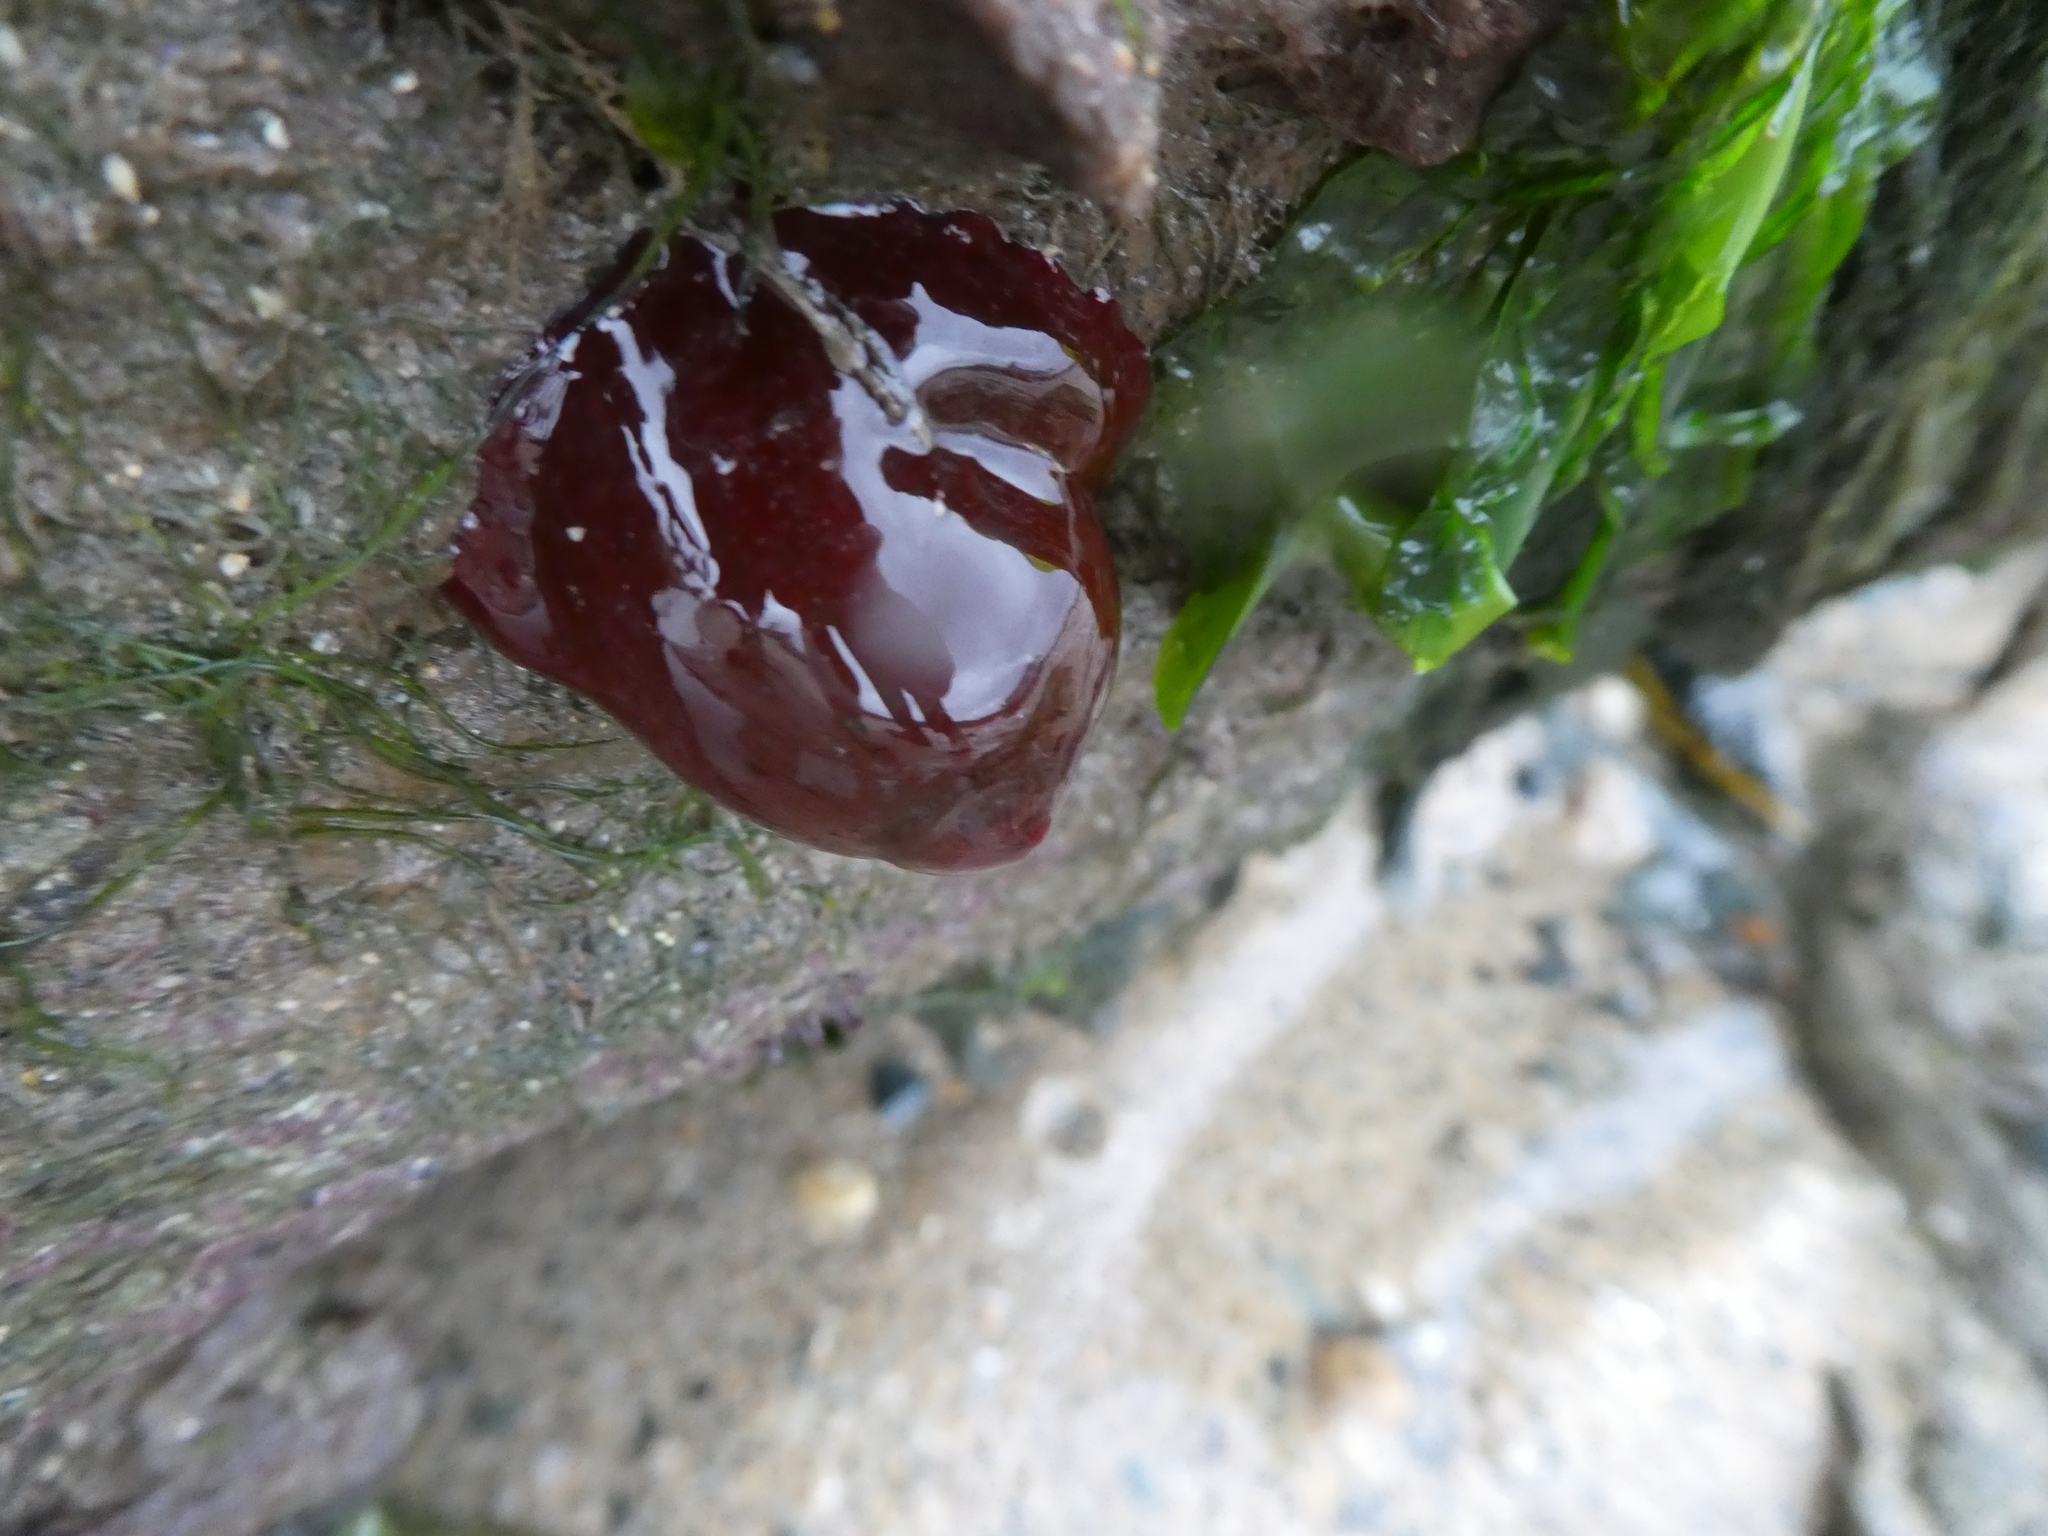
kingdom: Animalia
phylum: Cnidaria
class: Anthozoa
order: Actiniaria
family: Actiniidae
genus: Actinia
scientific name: Actinia equina
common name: Beadlet anemone
